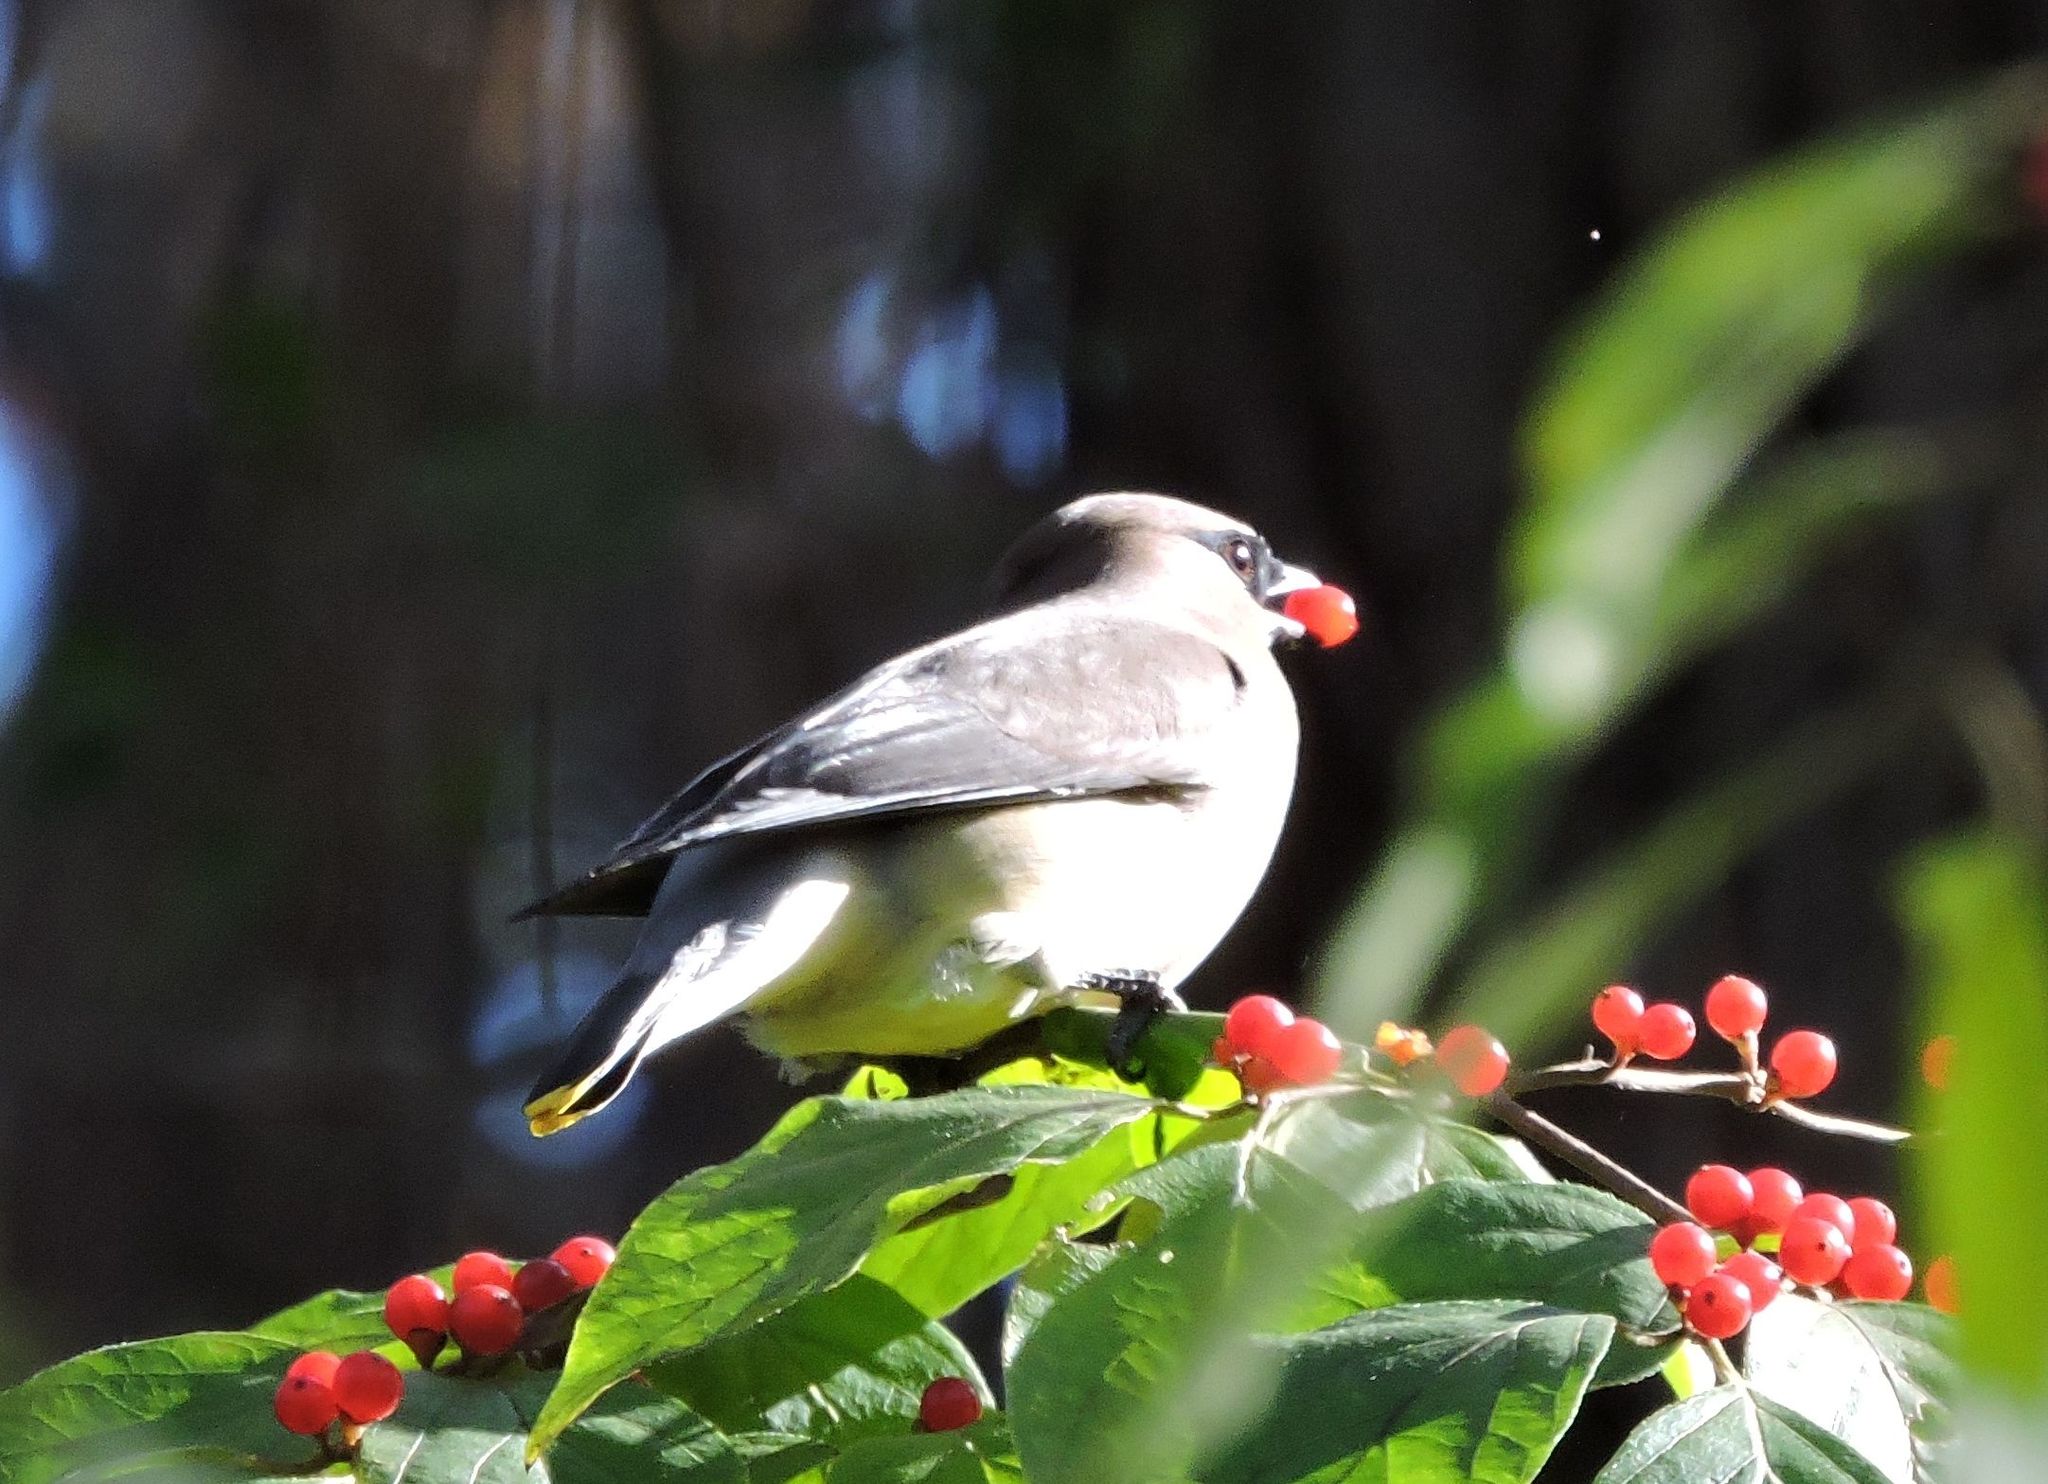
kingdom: Animalia
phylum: Chordata
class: Aves
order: Passeriformes
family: Bombycillidae
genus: Bombycilla
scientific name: Bombycilla cedrorum
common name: Cedar waxwing
